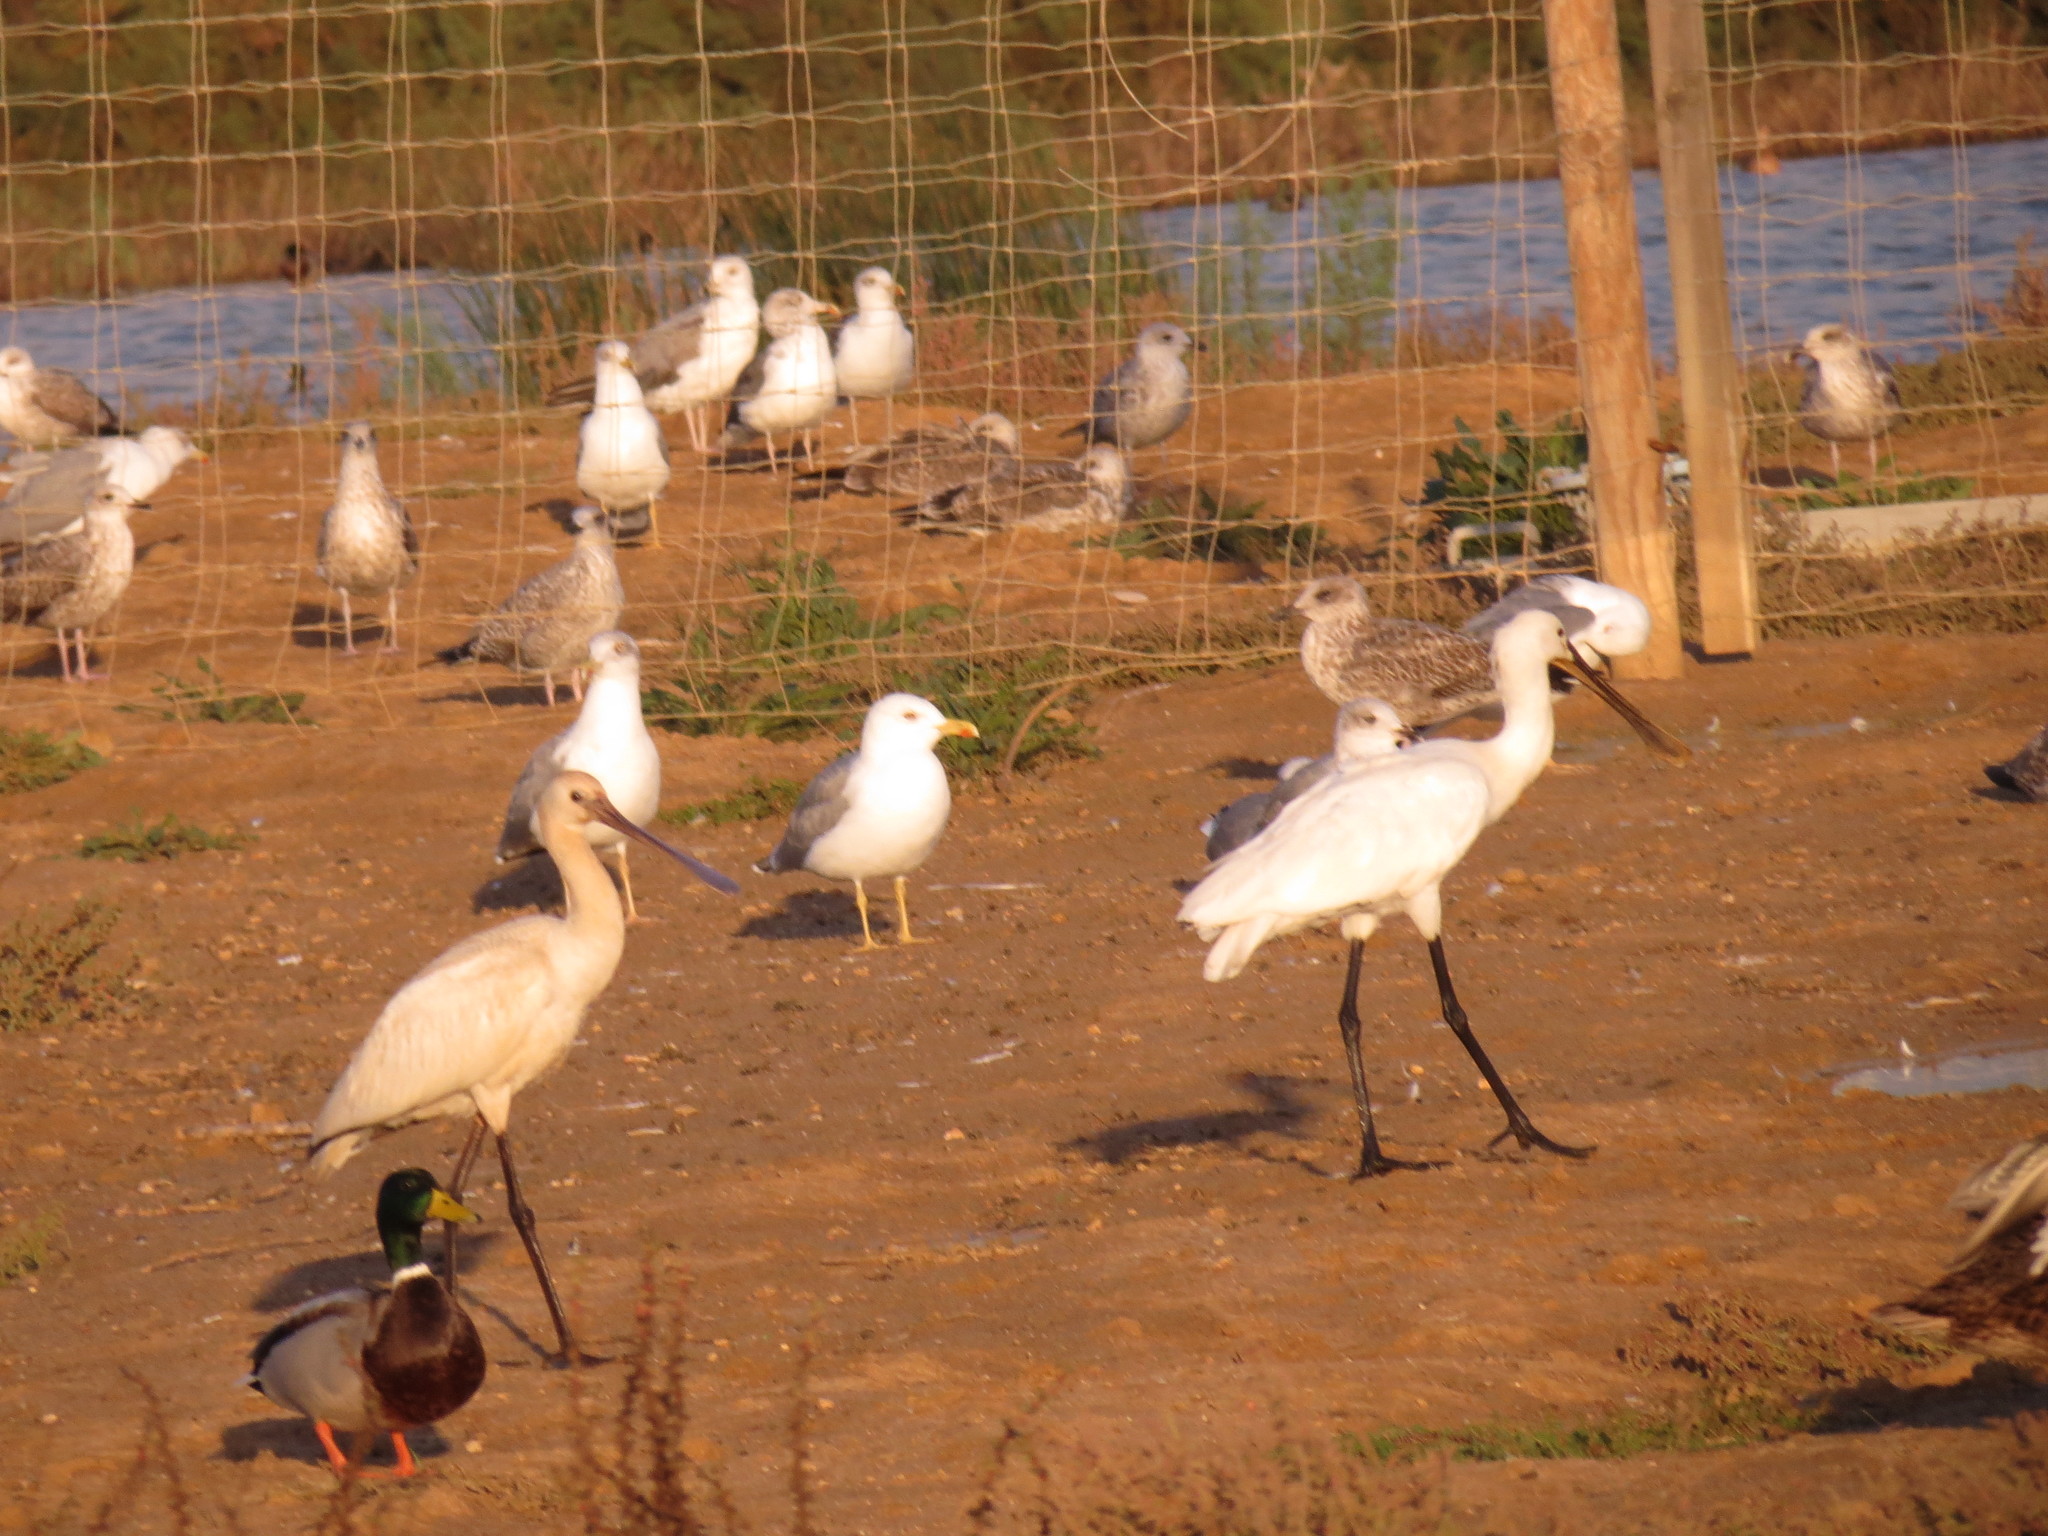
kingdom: Animalia
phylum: Chordata
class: Aves
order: Pelecaniformes
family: Threskiornithidae
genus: Platalea
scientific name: Platalea leucorodia
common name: Eurasian spoonbill
